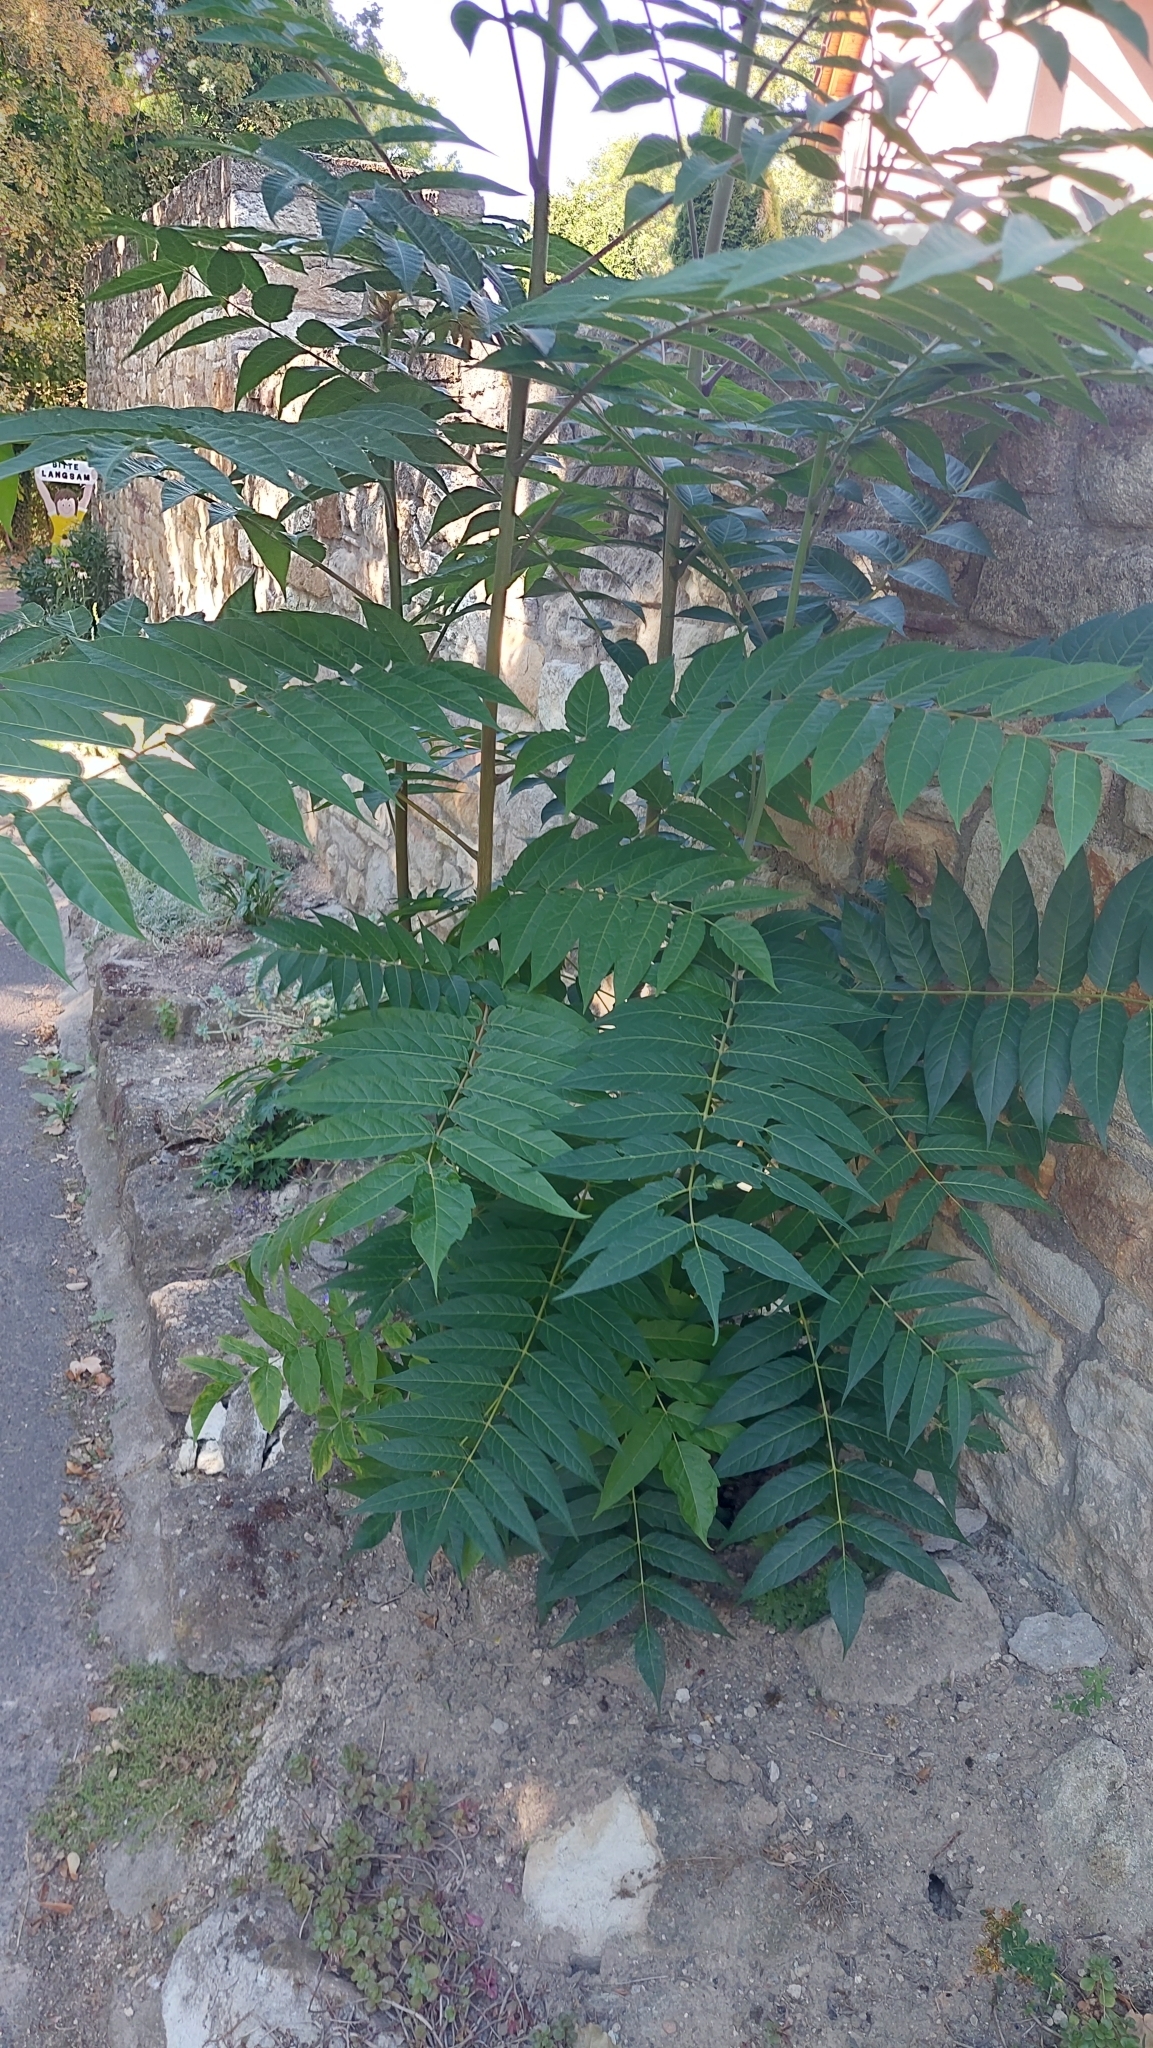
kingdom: Plantae
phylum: Tracheophyta
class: Magnoliopsida
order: Sapindales
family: Simaroubaceae
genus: Ailanthus
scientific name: Ailanthus altissima
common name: Tree-of-heaven
